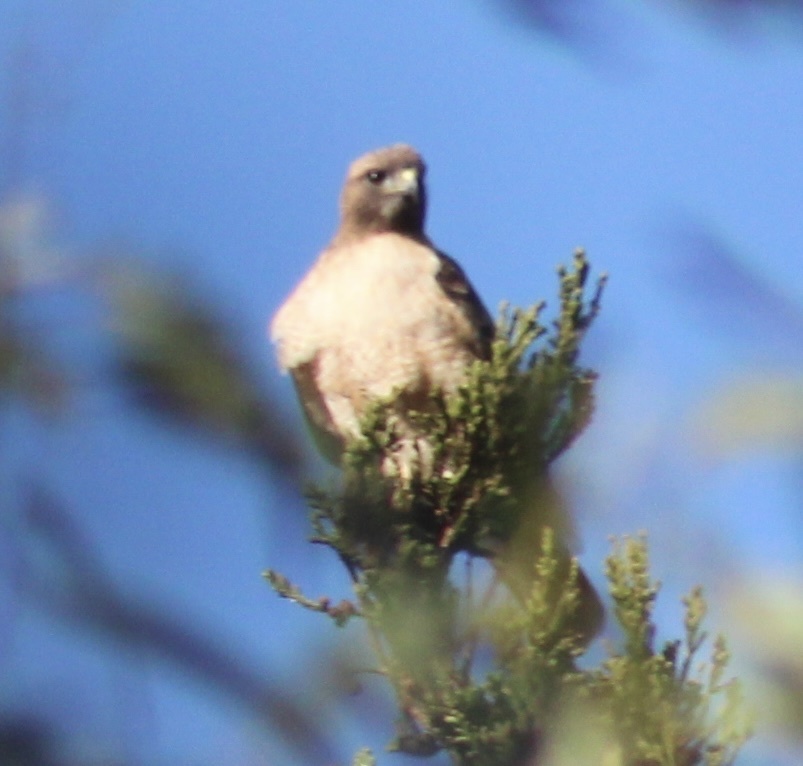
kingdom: Animalia
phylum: Chordata
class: Aves
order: Accipitriformes
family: Accipitridae
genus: Buteo
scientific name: Buteo jamaicensis
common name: Red-tailed hawk
